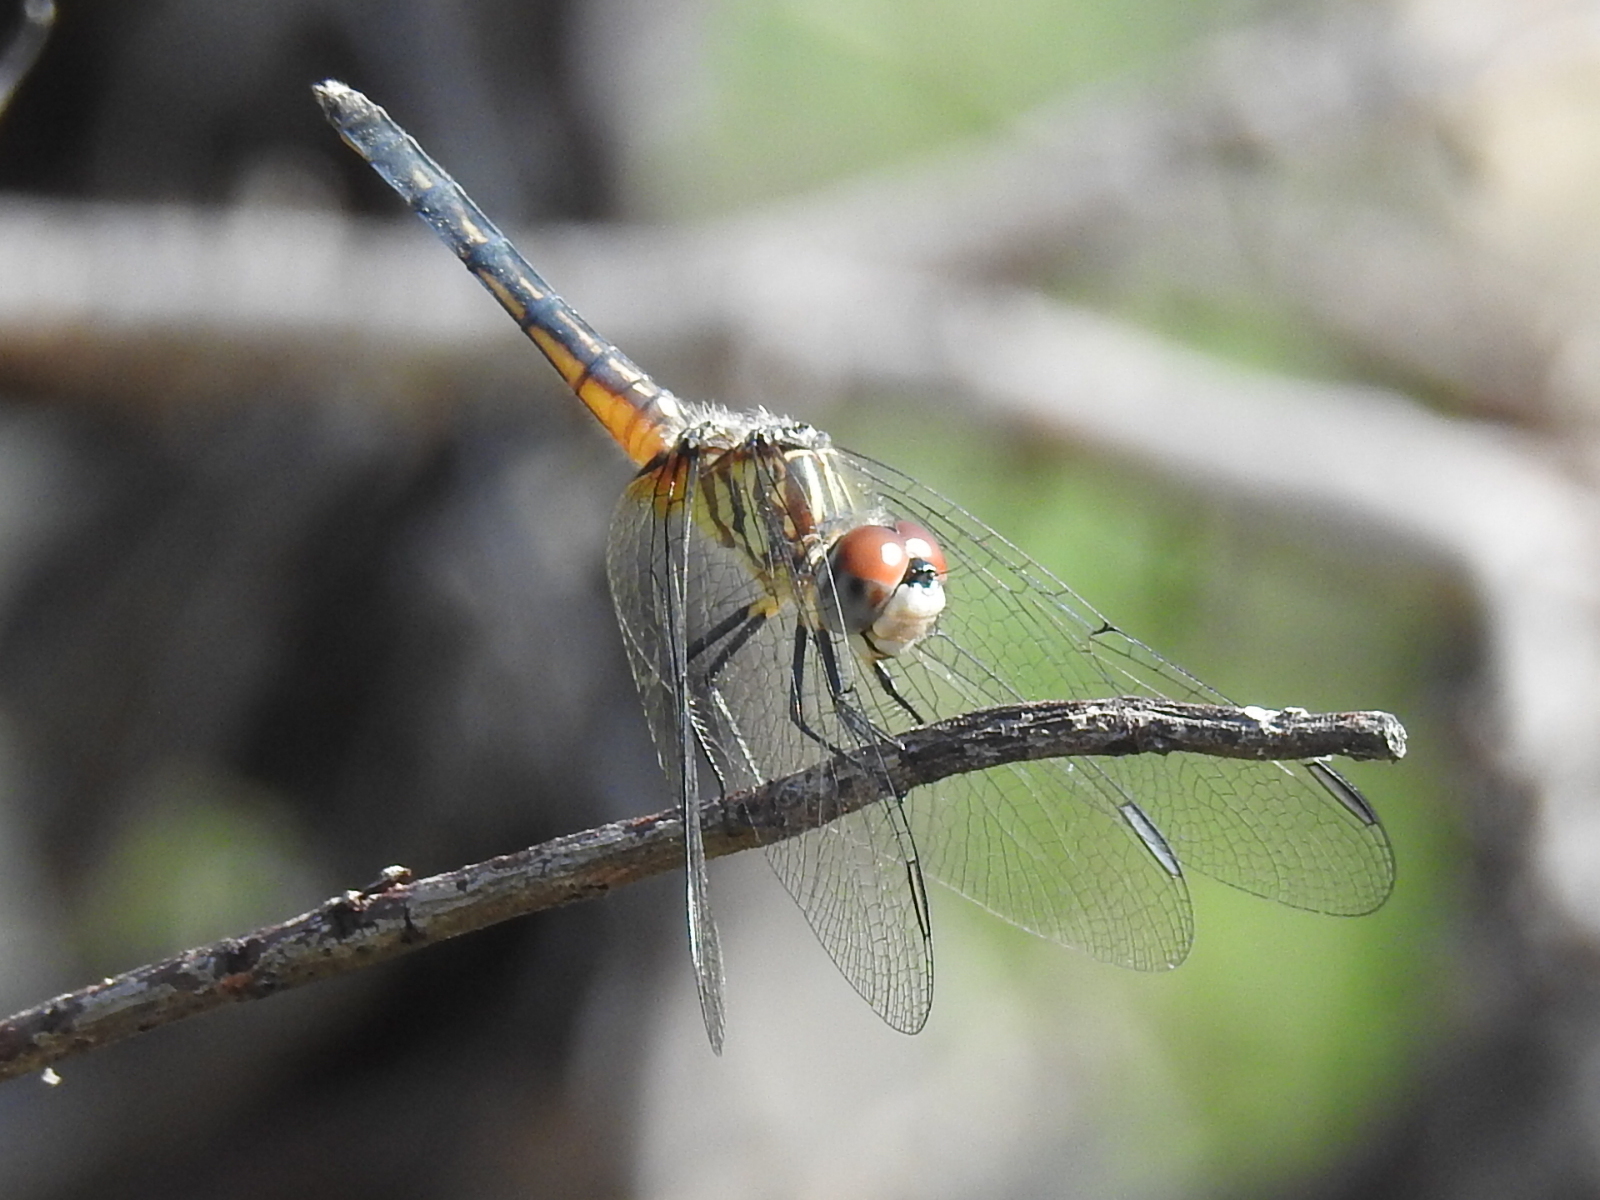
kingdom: Animalia
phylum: Arthropoda
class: Insecta
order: Odonata
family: Libellulidae
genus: Pachydiplax
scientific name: Pachydiplax longipennis
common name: Blue dasher
